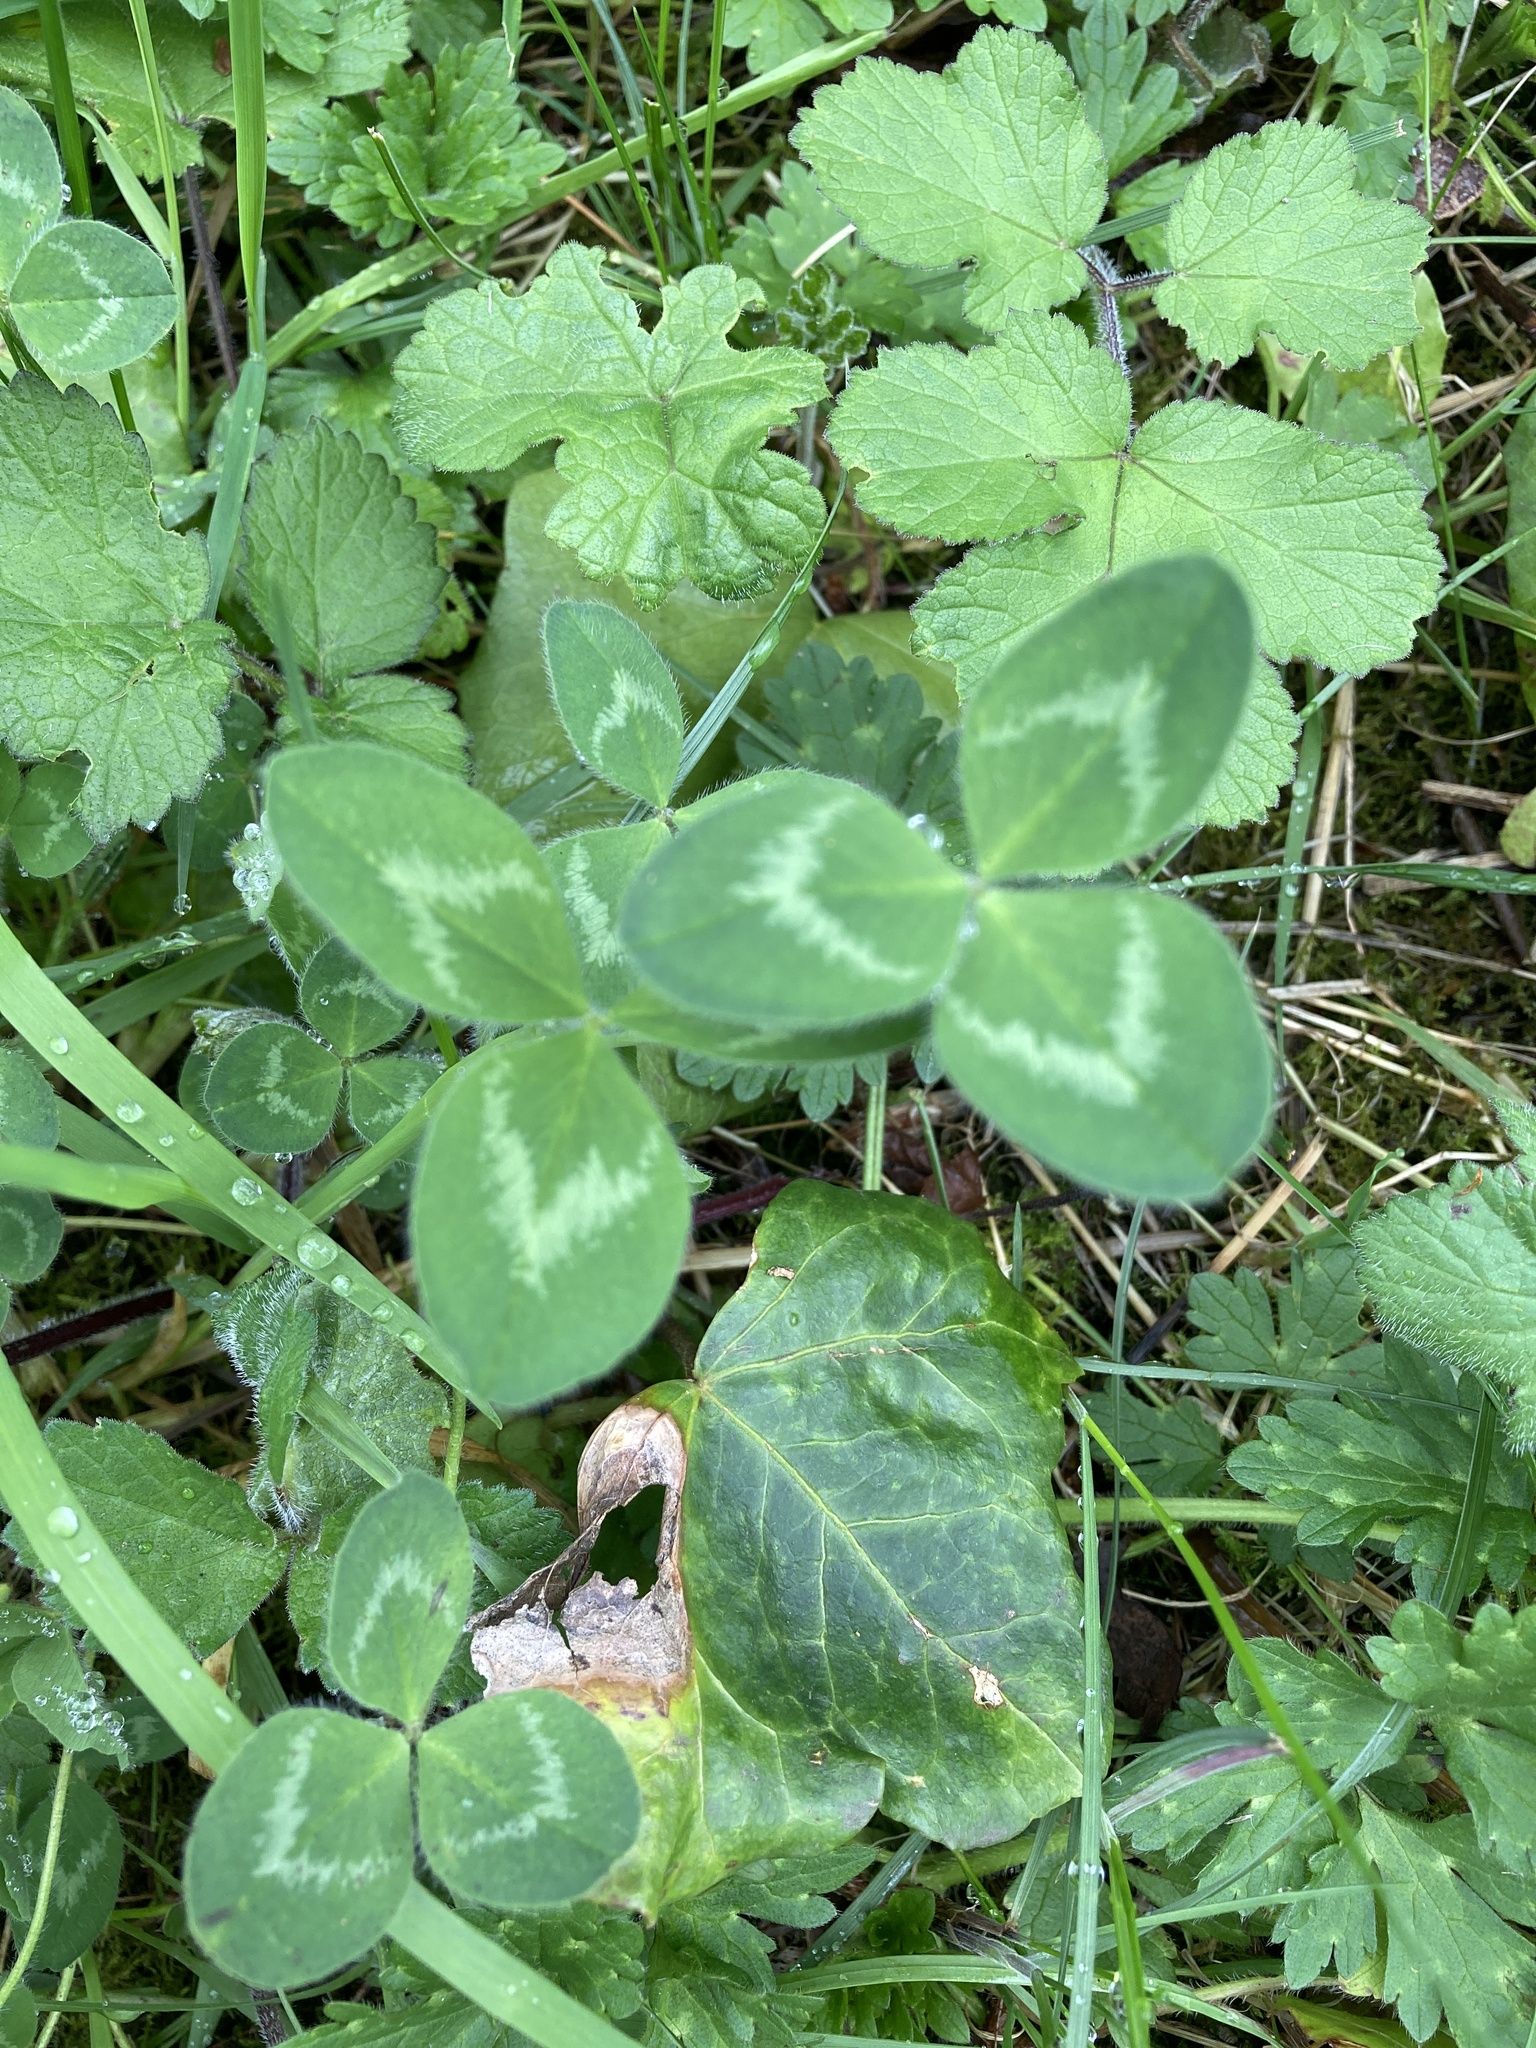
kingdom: Plantae
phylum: Tracheophyta
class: Magnoliopsida
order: Fabales
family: Fabaceae
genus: Trifolium
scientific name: Trifolium pratense
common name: Red clover
